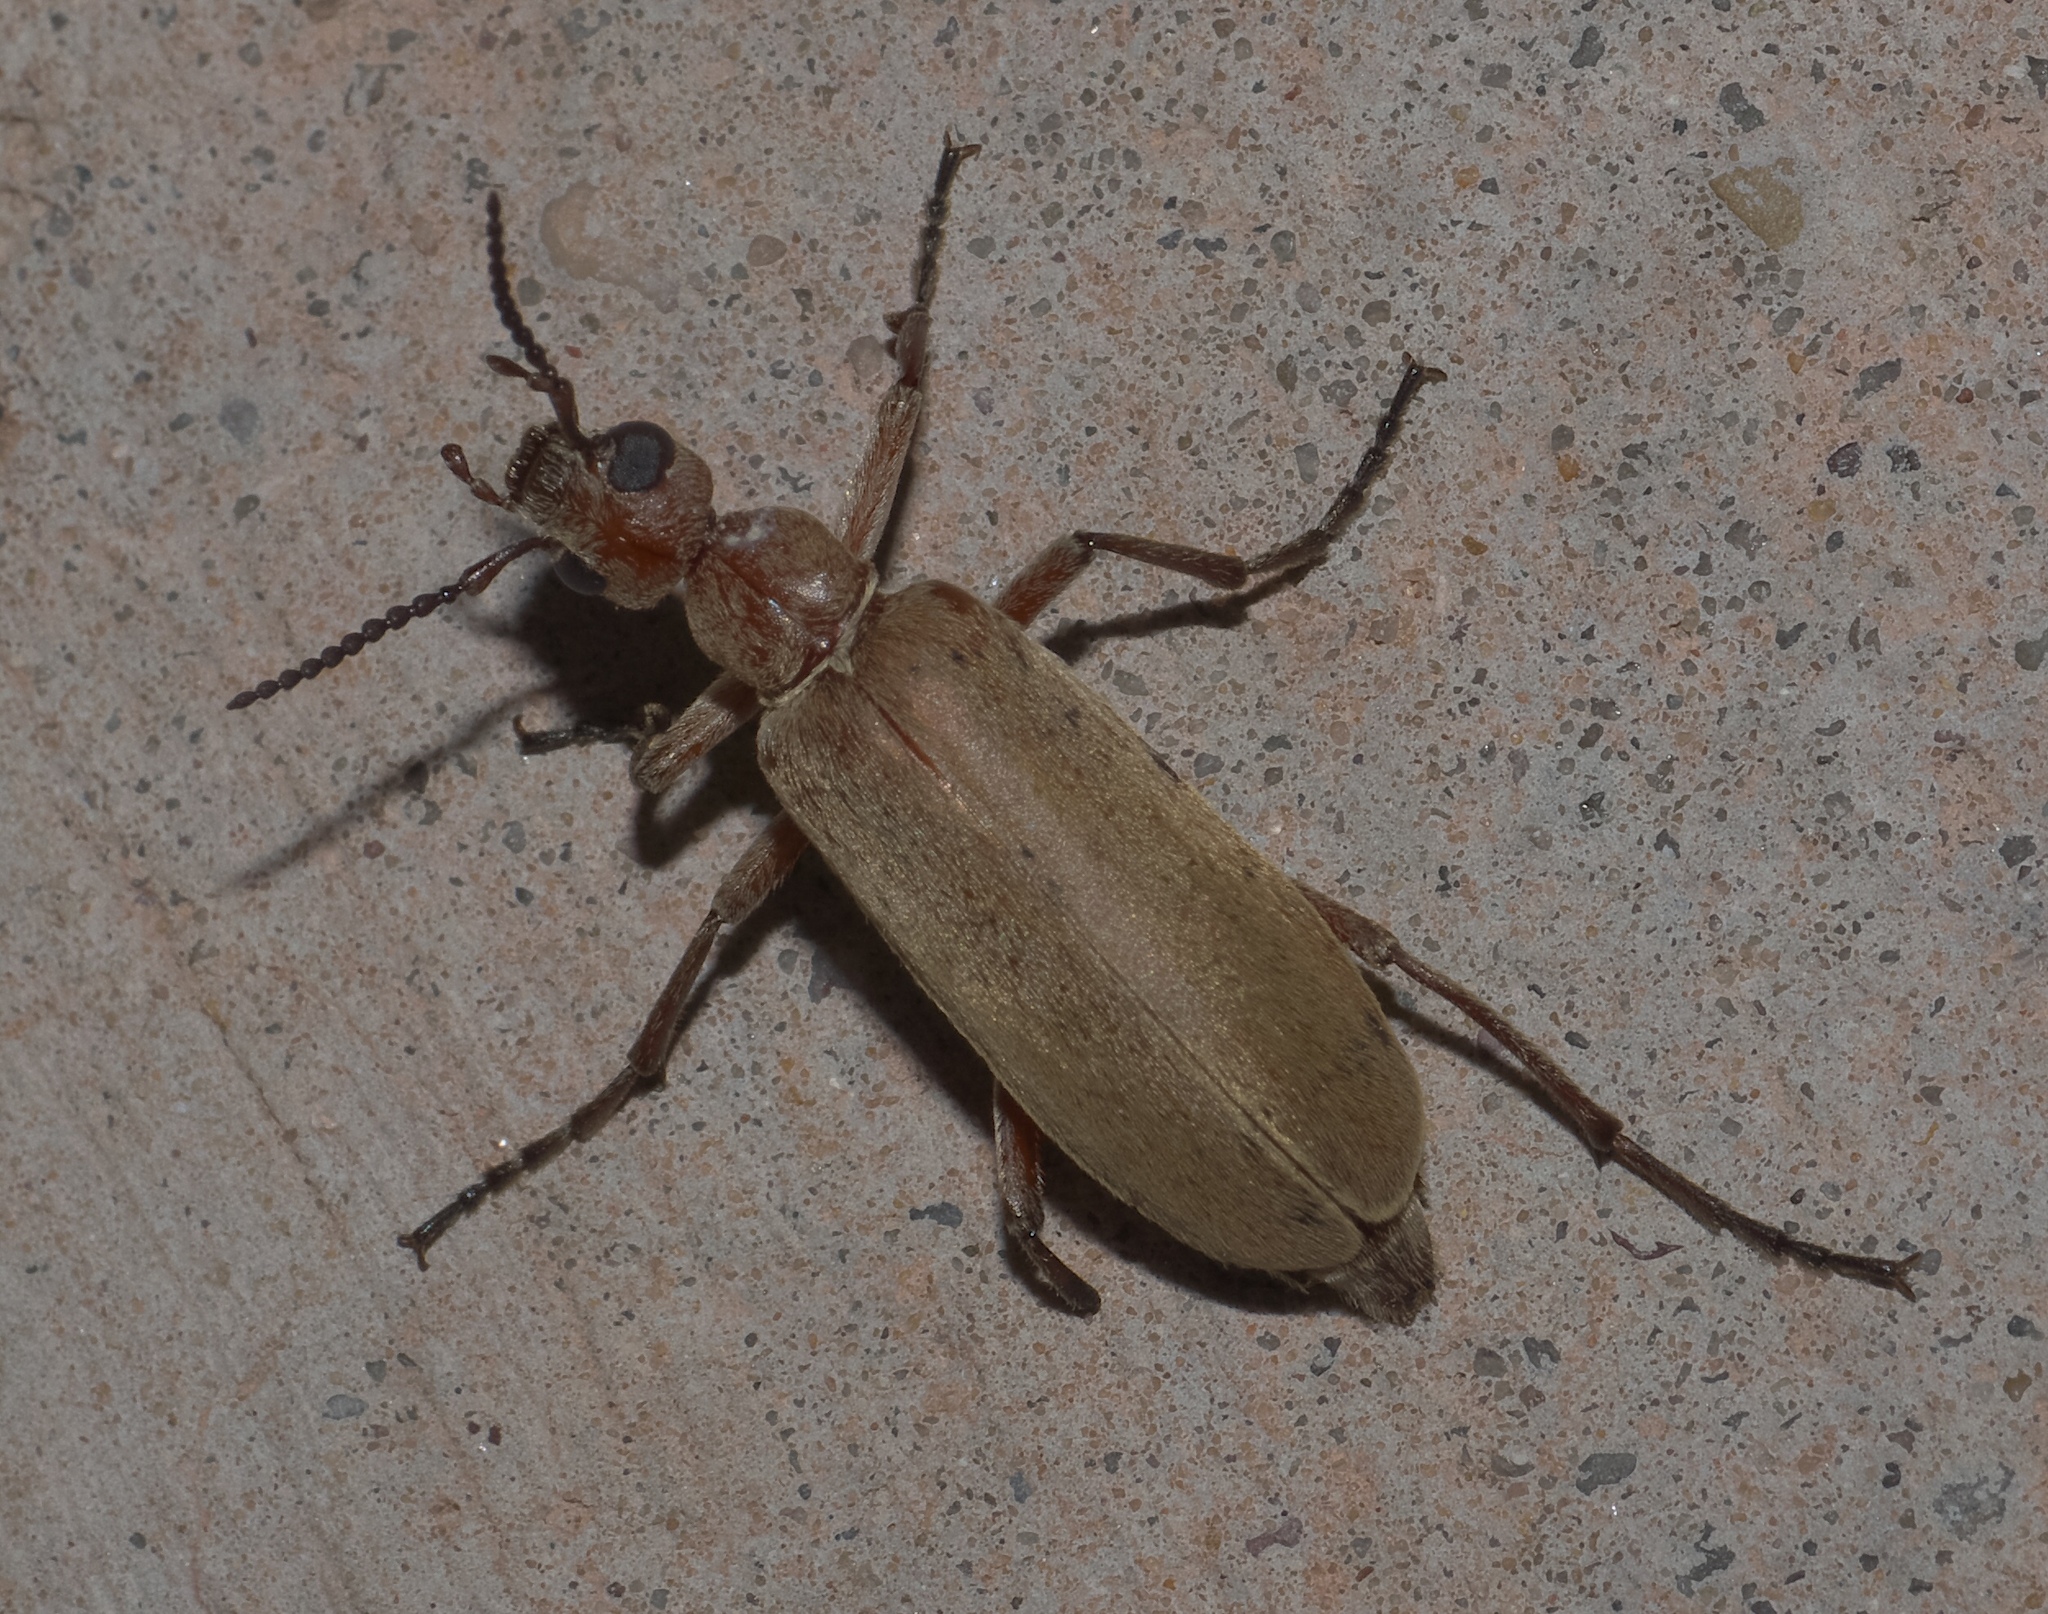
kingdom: Animalia
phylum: Arthropoda
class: Insecta
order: Coleoptera
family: Meloidae
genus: Epicauta
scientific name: Epicauta ochrea
